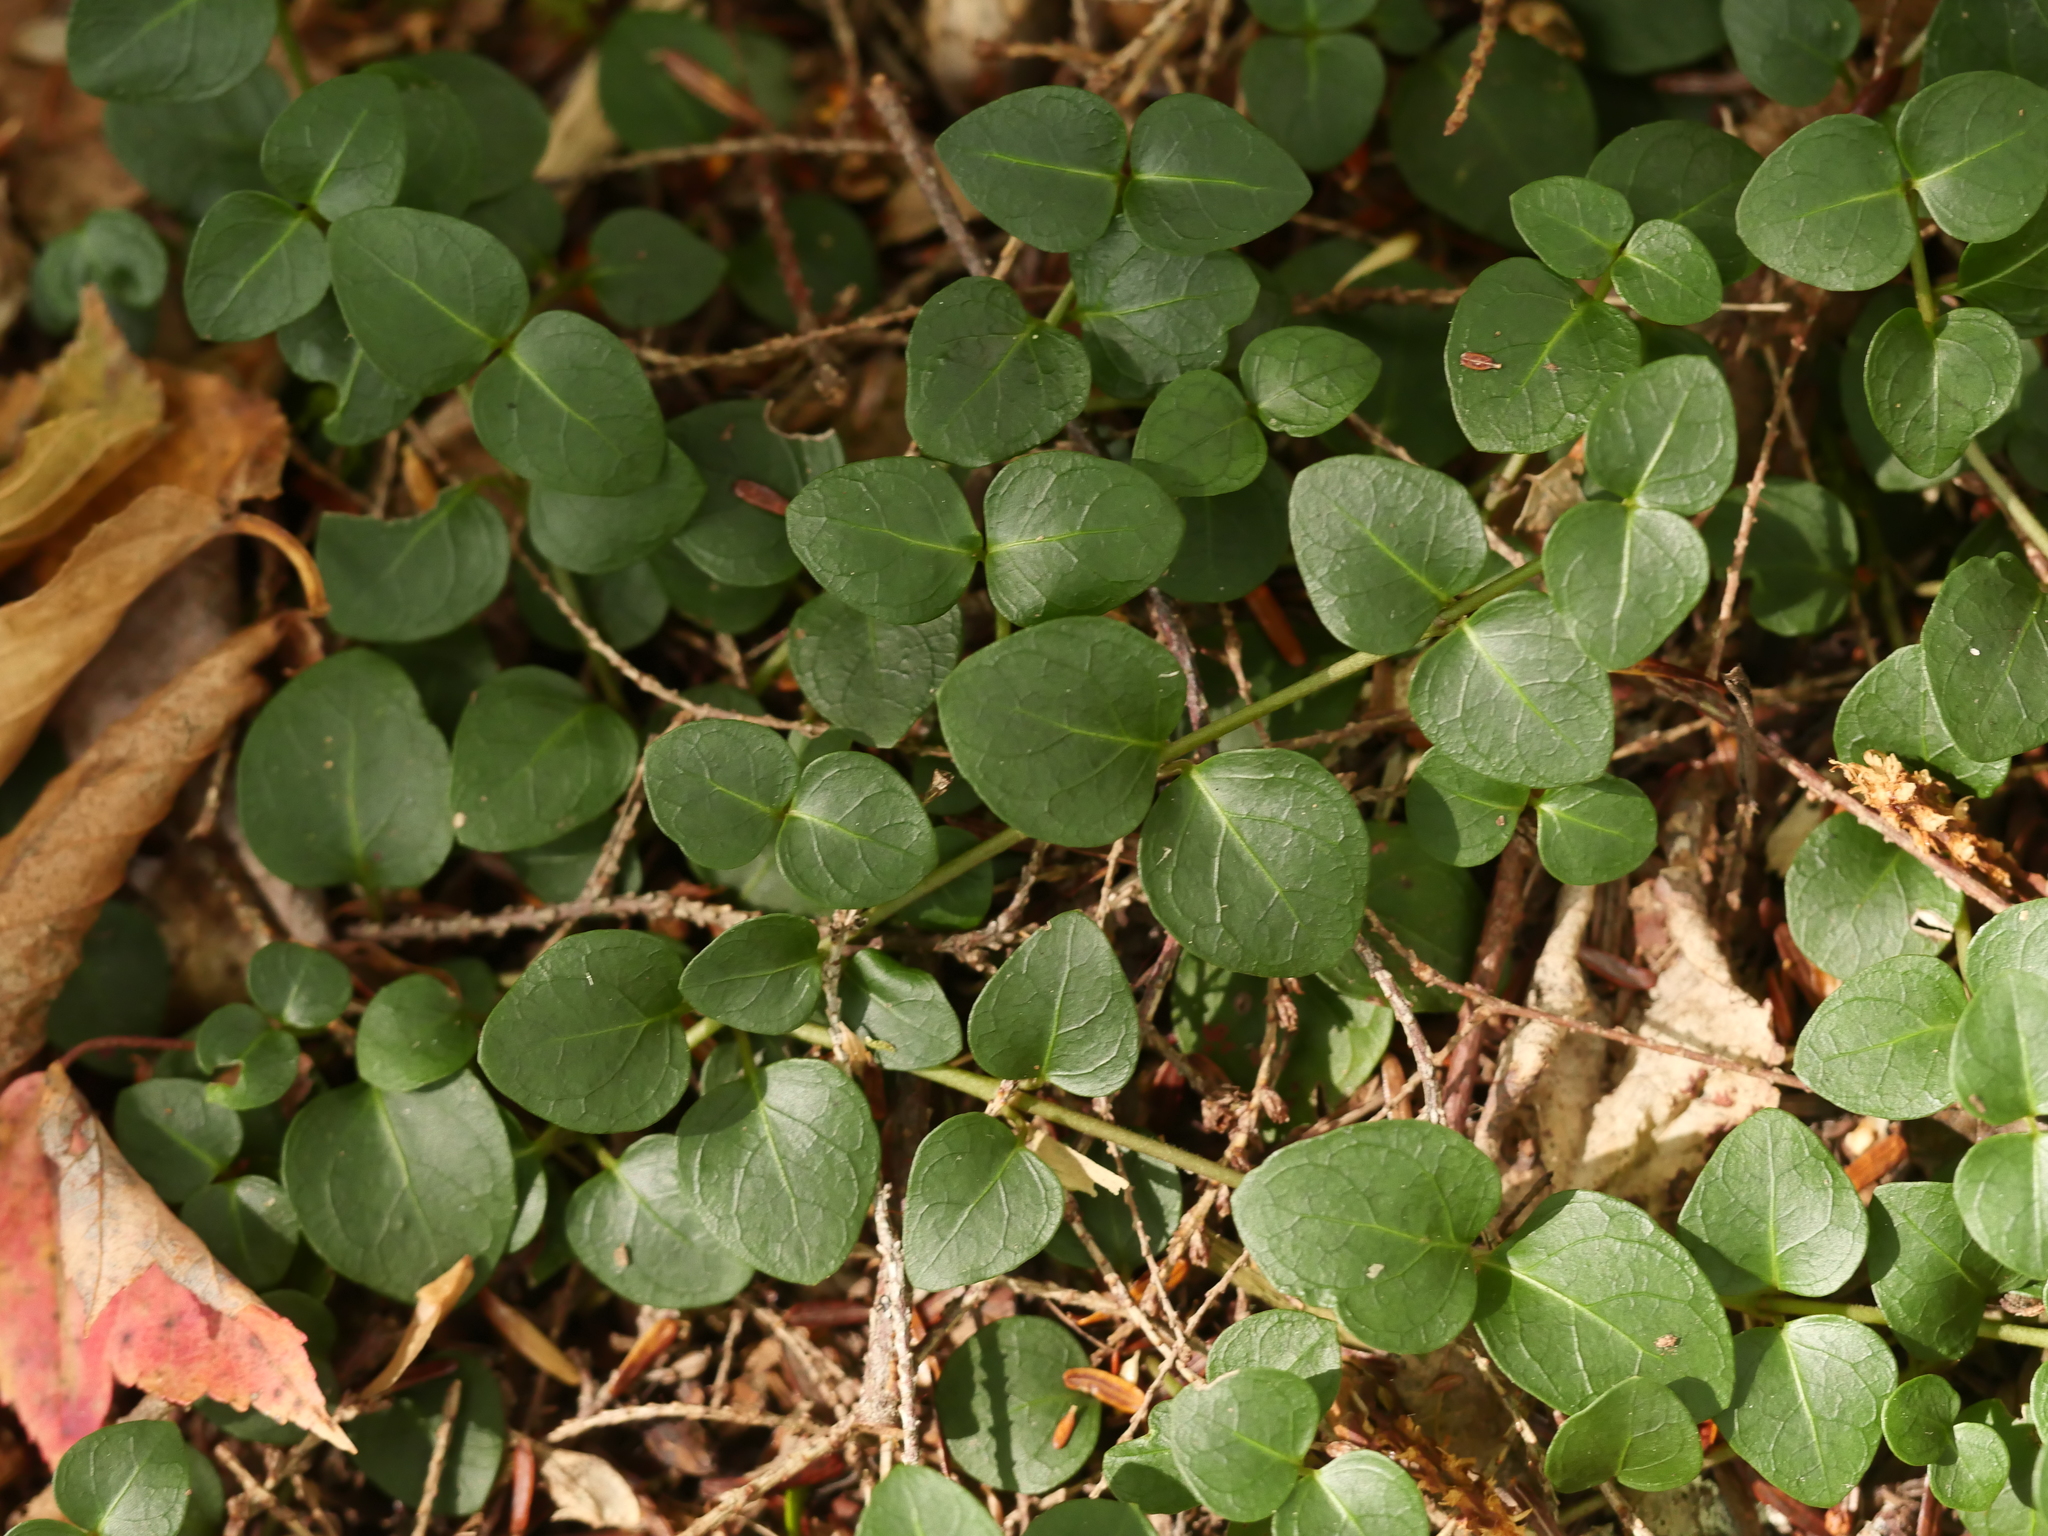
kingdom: Plantae
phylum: Tracheophyta
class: Magnoliopsida
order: Gentianales
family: Rubiaceae
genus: Mitchella
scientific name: Mitchella repens
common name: Partridge-berry
